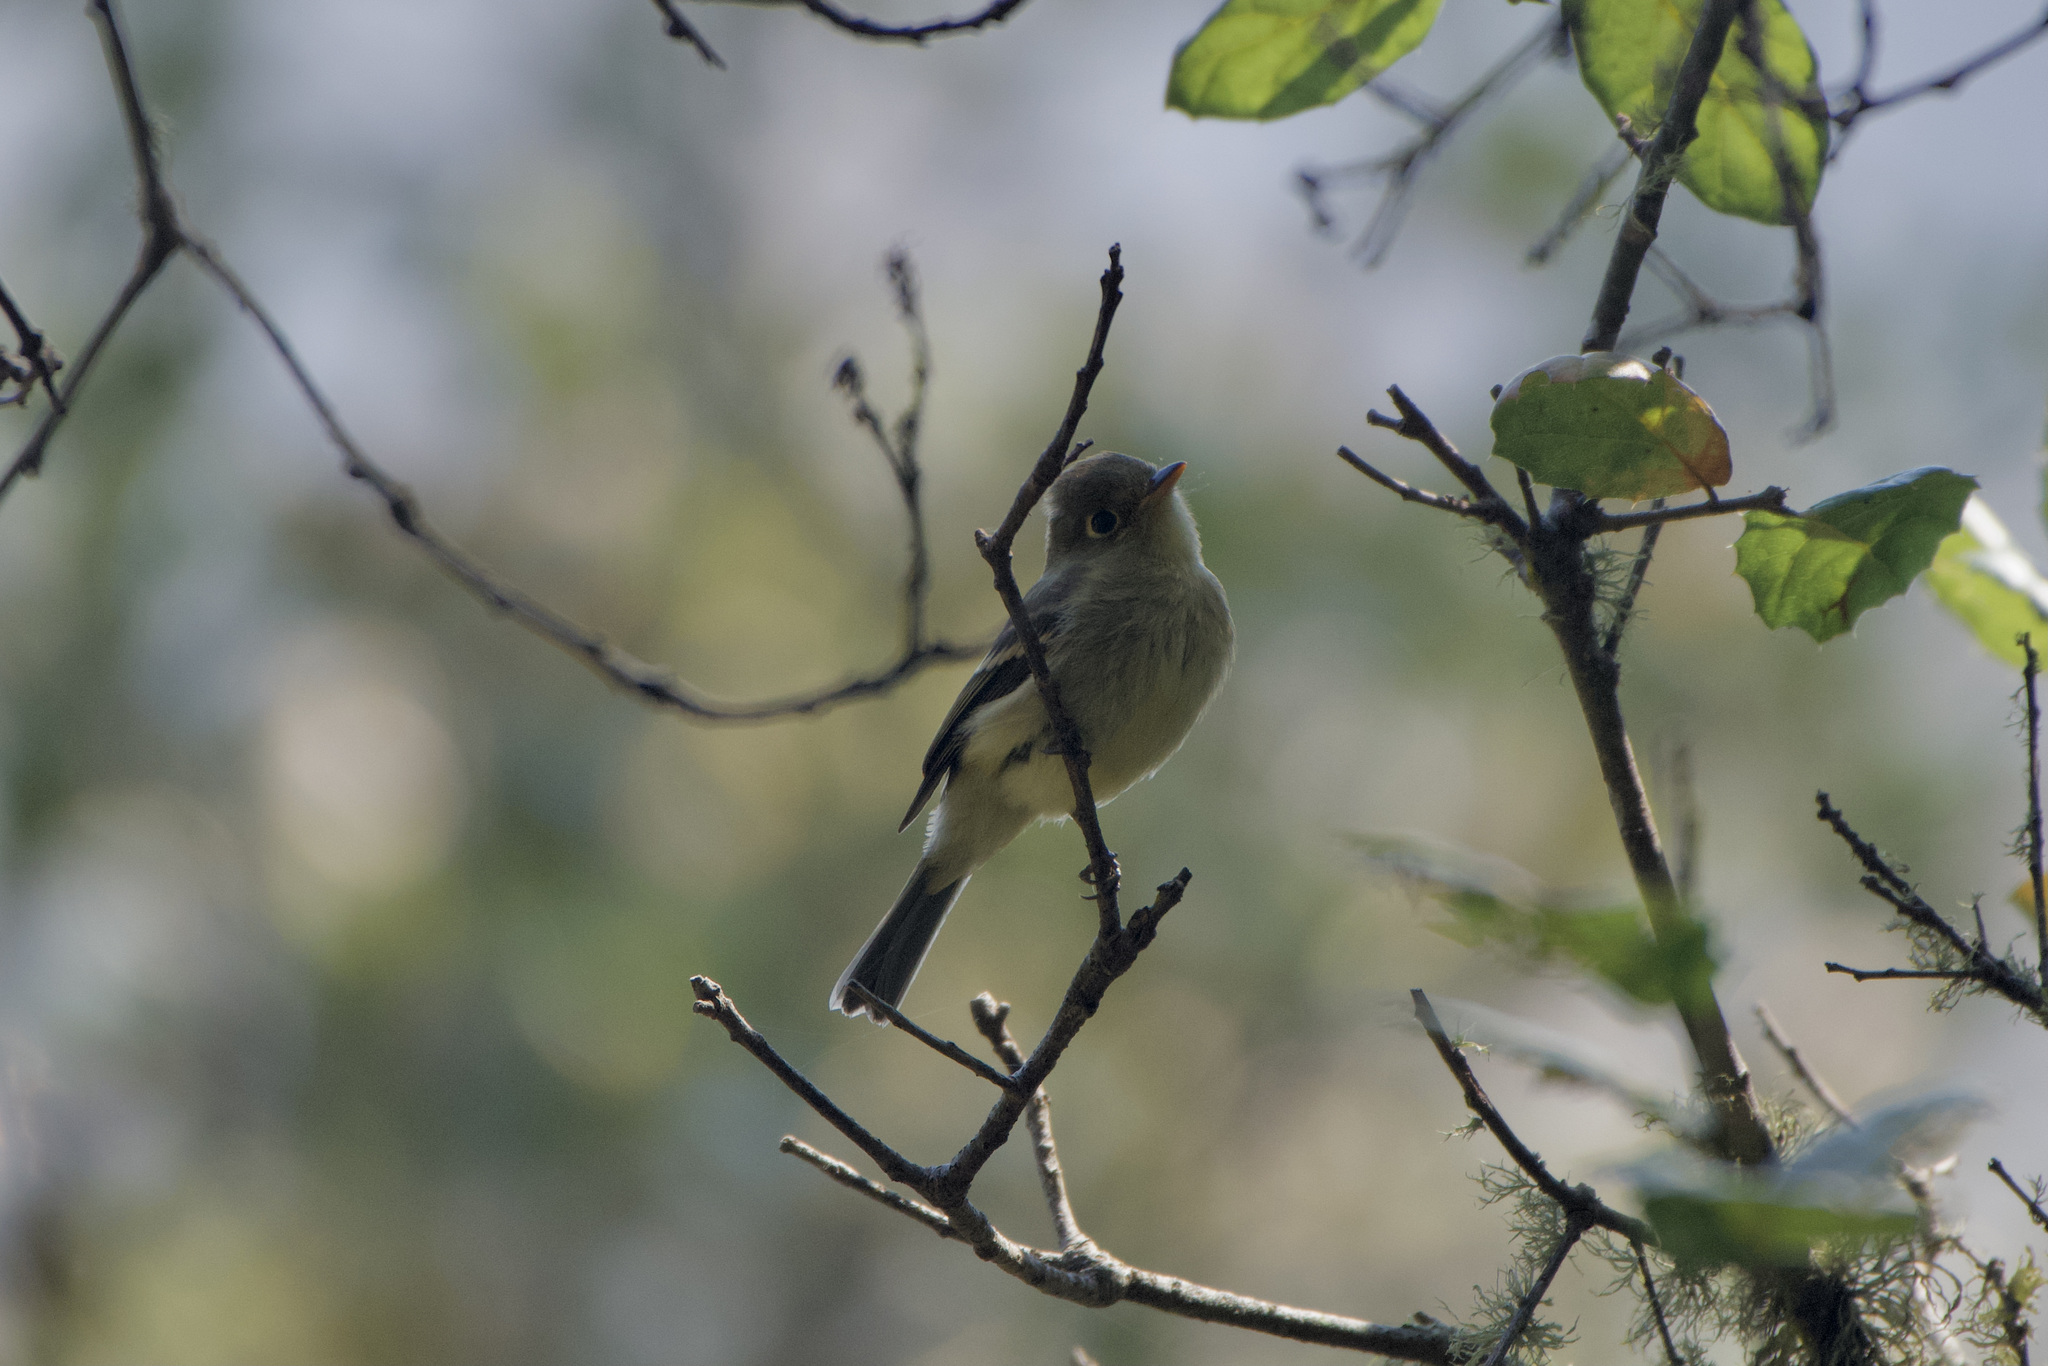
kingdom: Animalia
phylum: Chordata
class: Aves
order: Passeriformes
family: Tyrannidae
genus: Empidonax
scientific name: Empidonax difficilis
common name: Pacific-slope flycatcher
